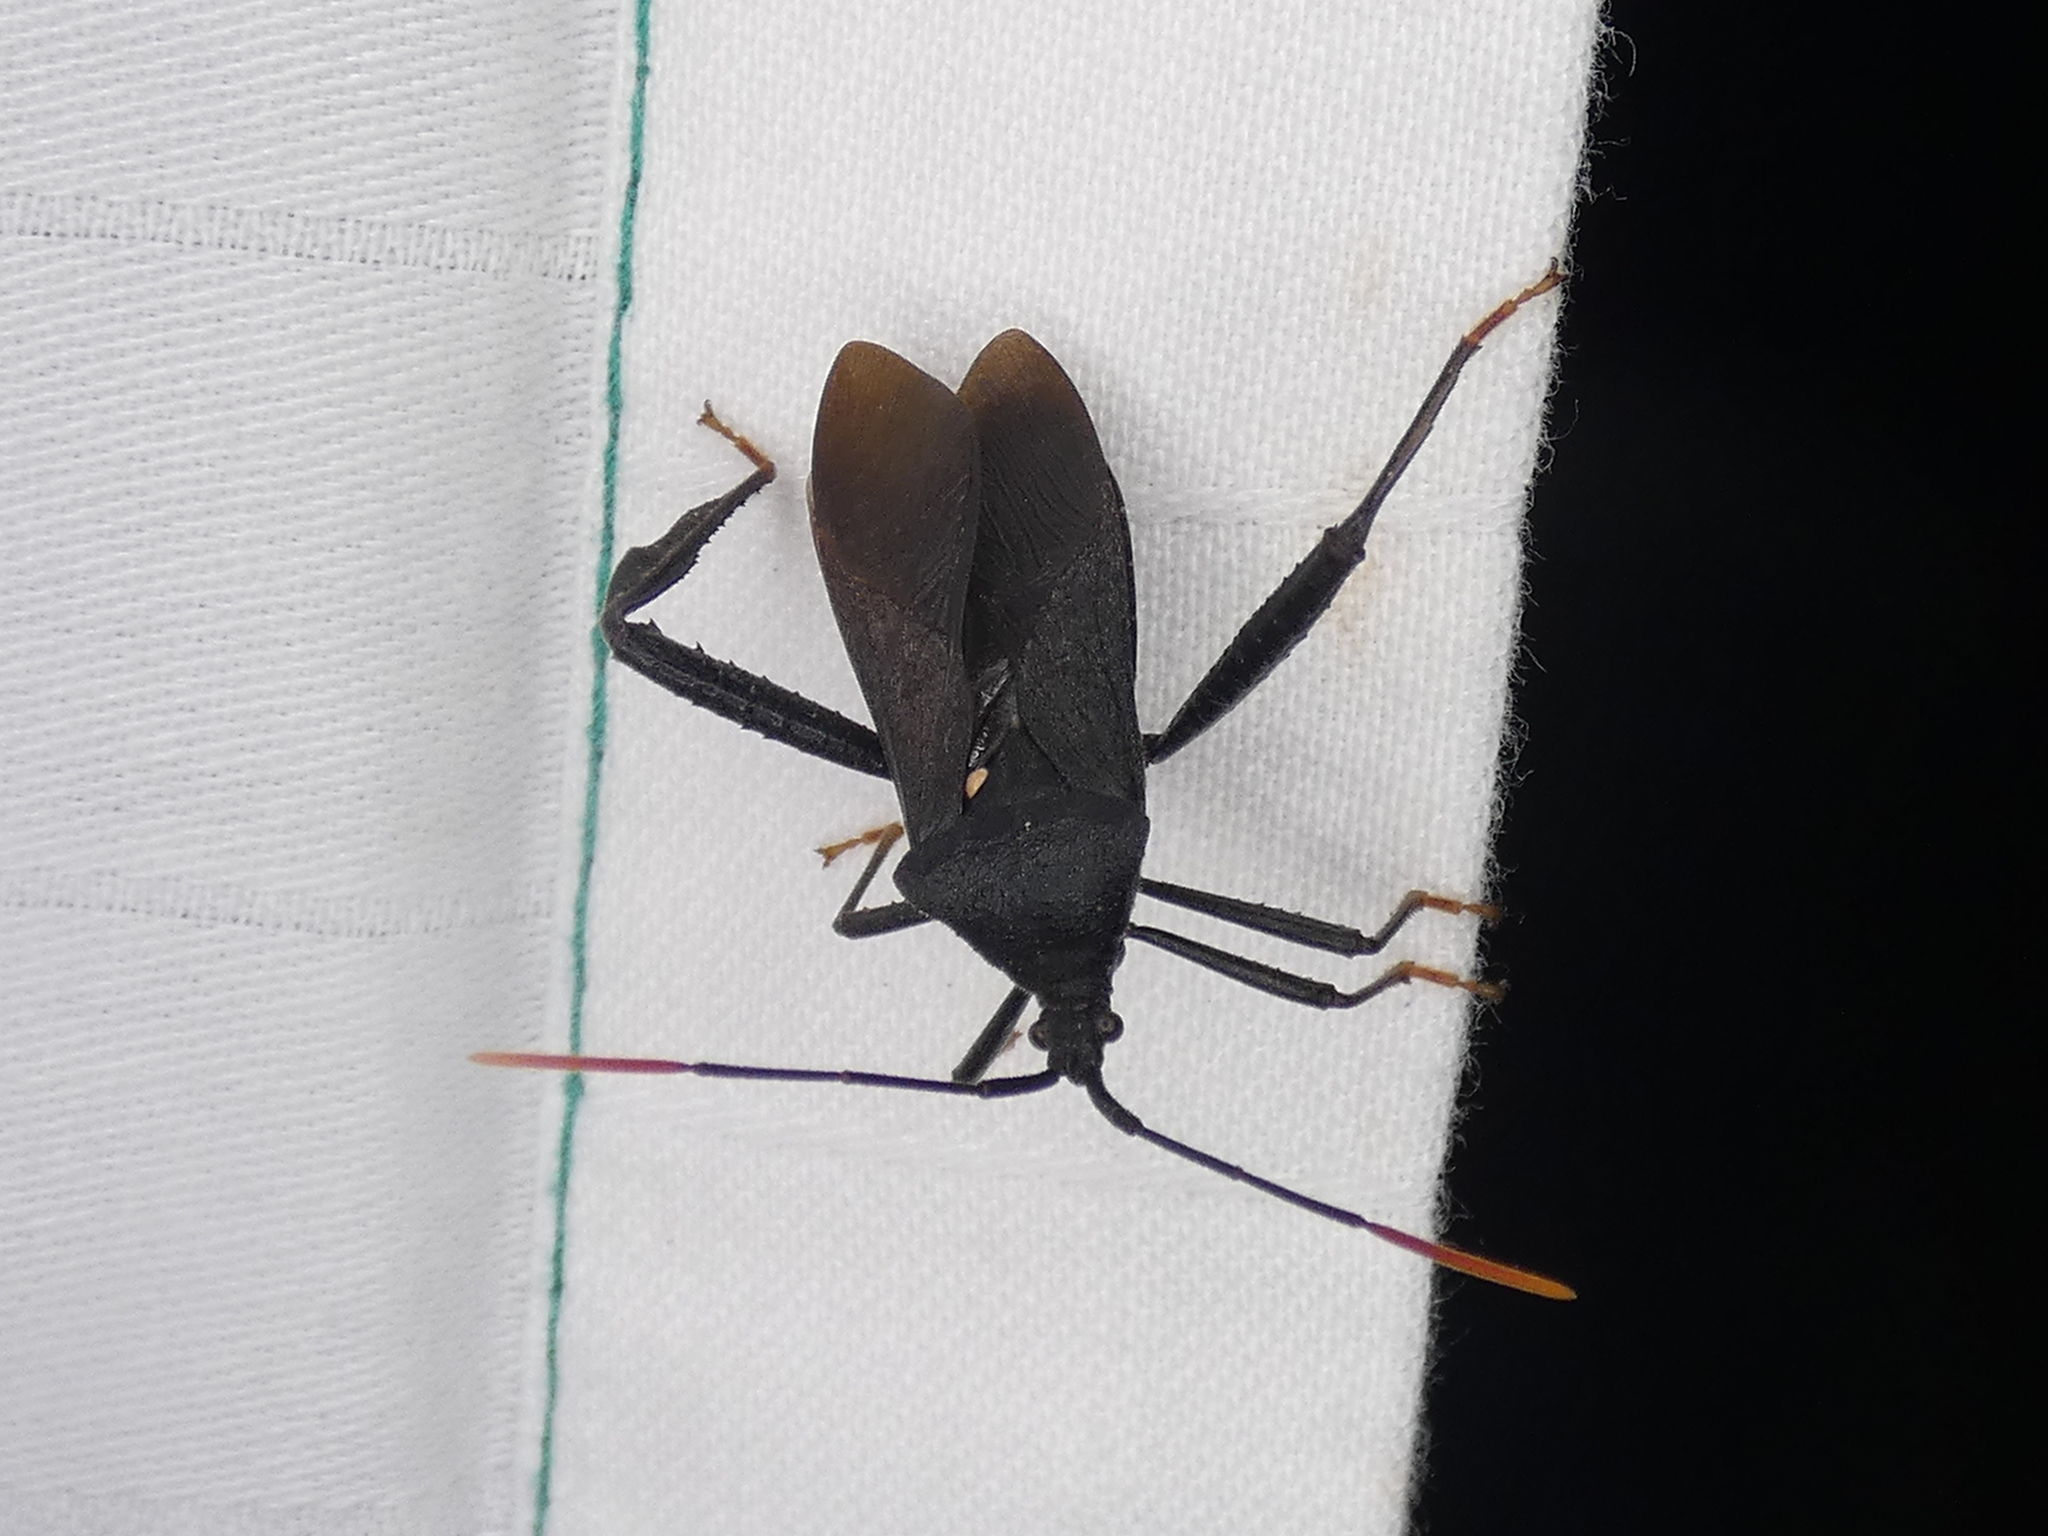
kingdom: Animalia
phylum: Arthropoda
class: Insecta
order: Hemiptera
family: Coreidae
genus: Acanthocephala
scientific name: Acanthocephala terminalis
